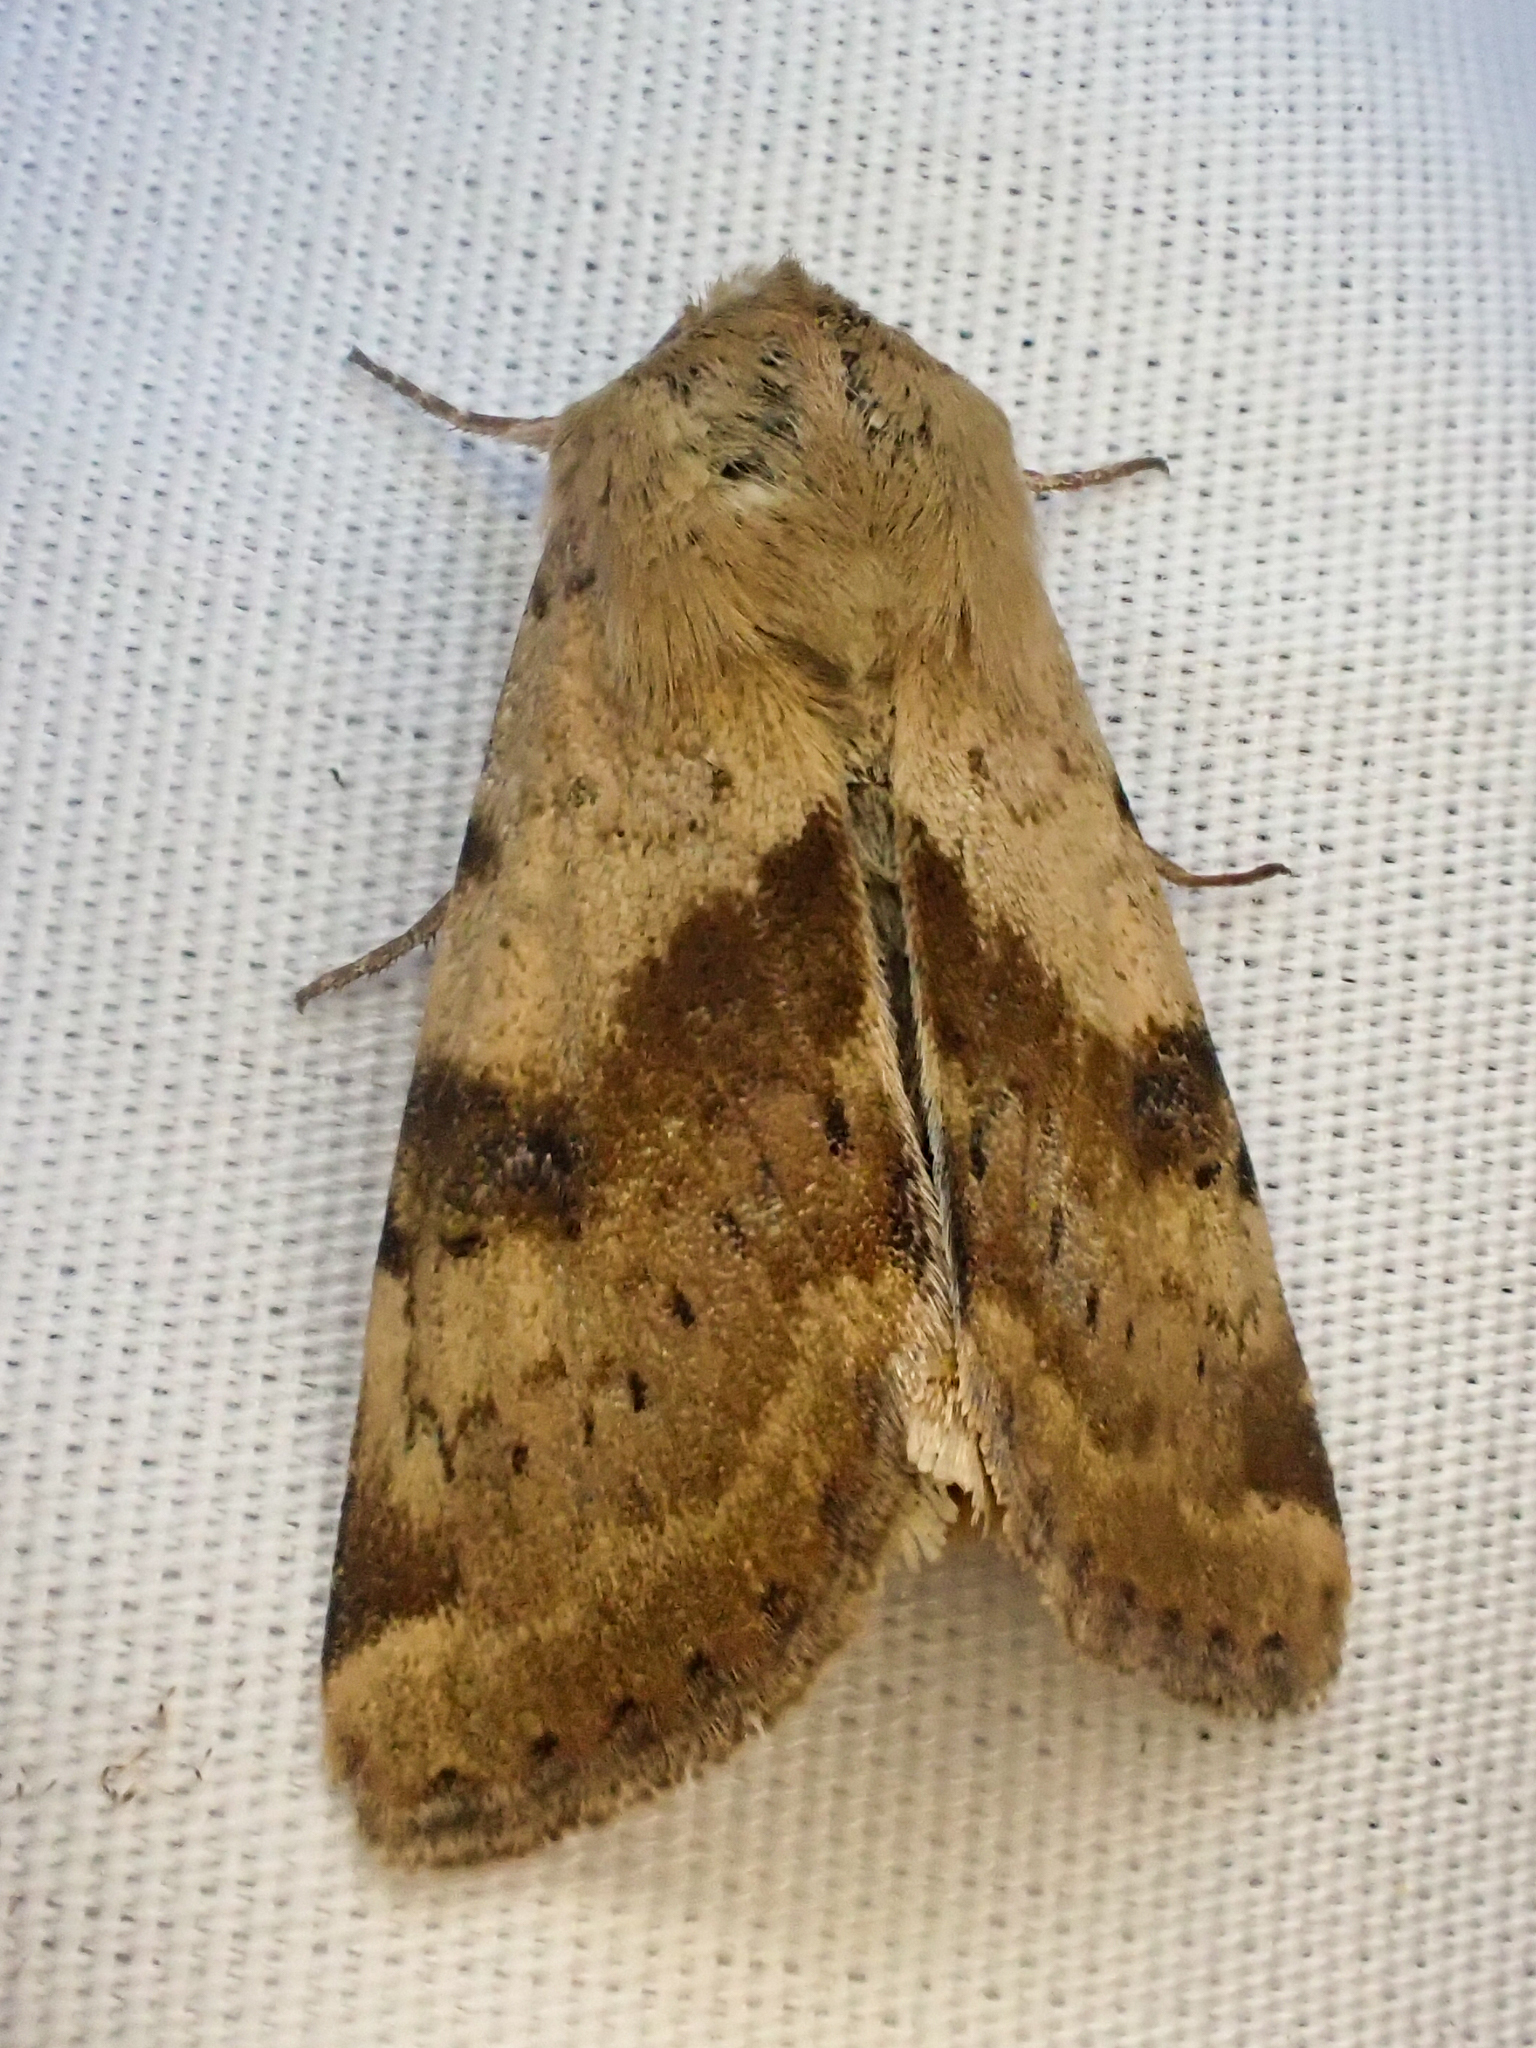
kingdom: Animalia
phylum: Arthropoda
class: Insecta
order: Lepidoptera
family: Noctuidae
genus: Heliothis
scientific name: Heliothis phloxiphaga
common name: Darker spotted straw moth
